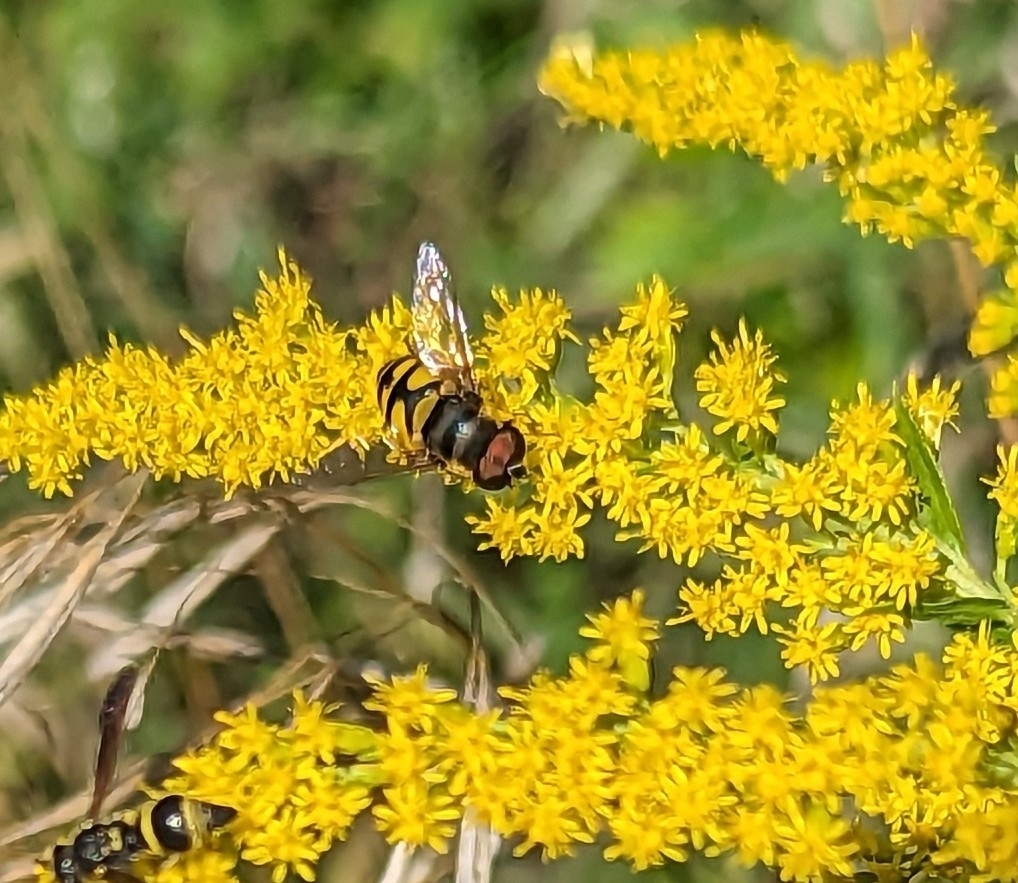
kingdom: Animalia
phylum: Arthropoda
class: Insecta
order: Diptera
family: Syrphidae
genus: Eristalis
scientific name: Eristalis transversa
